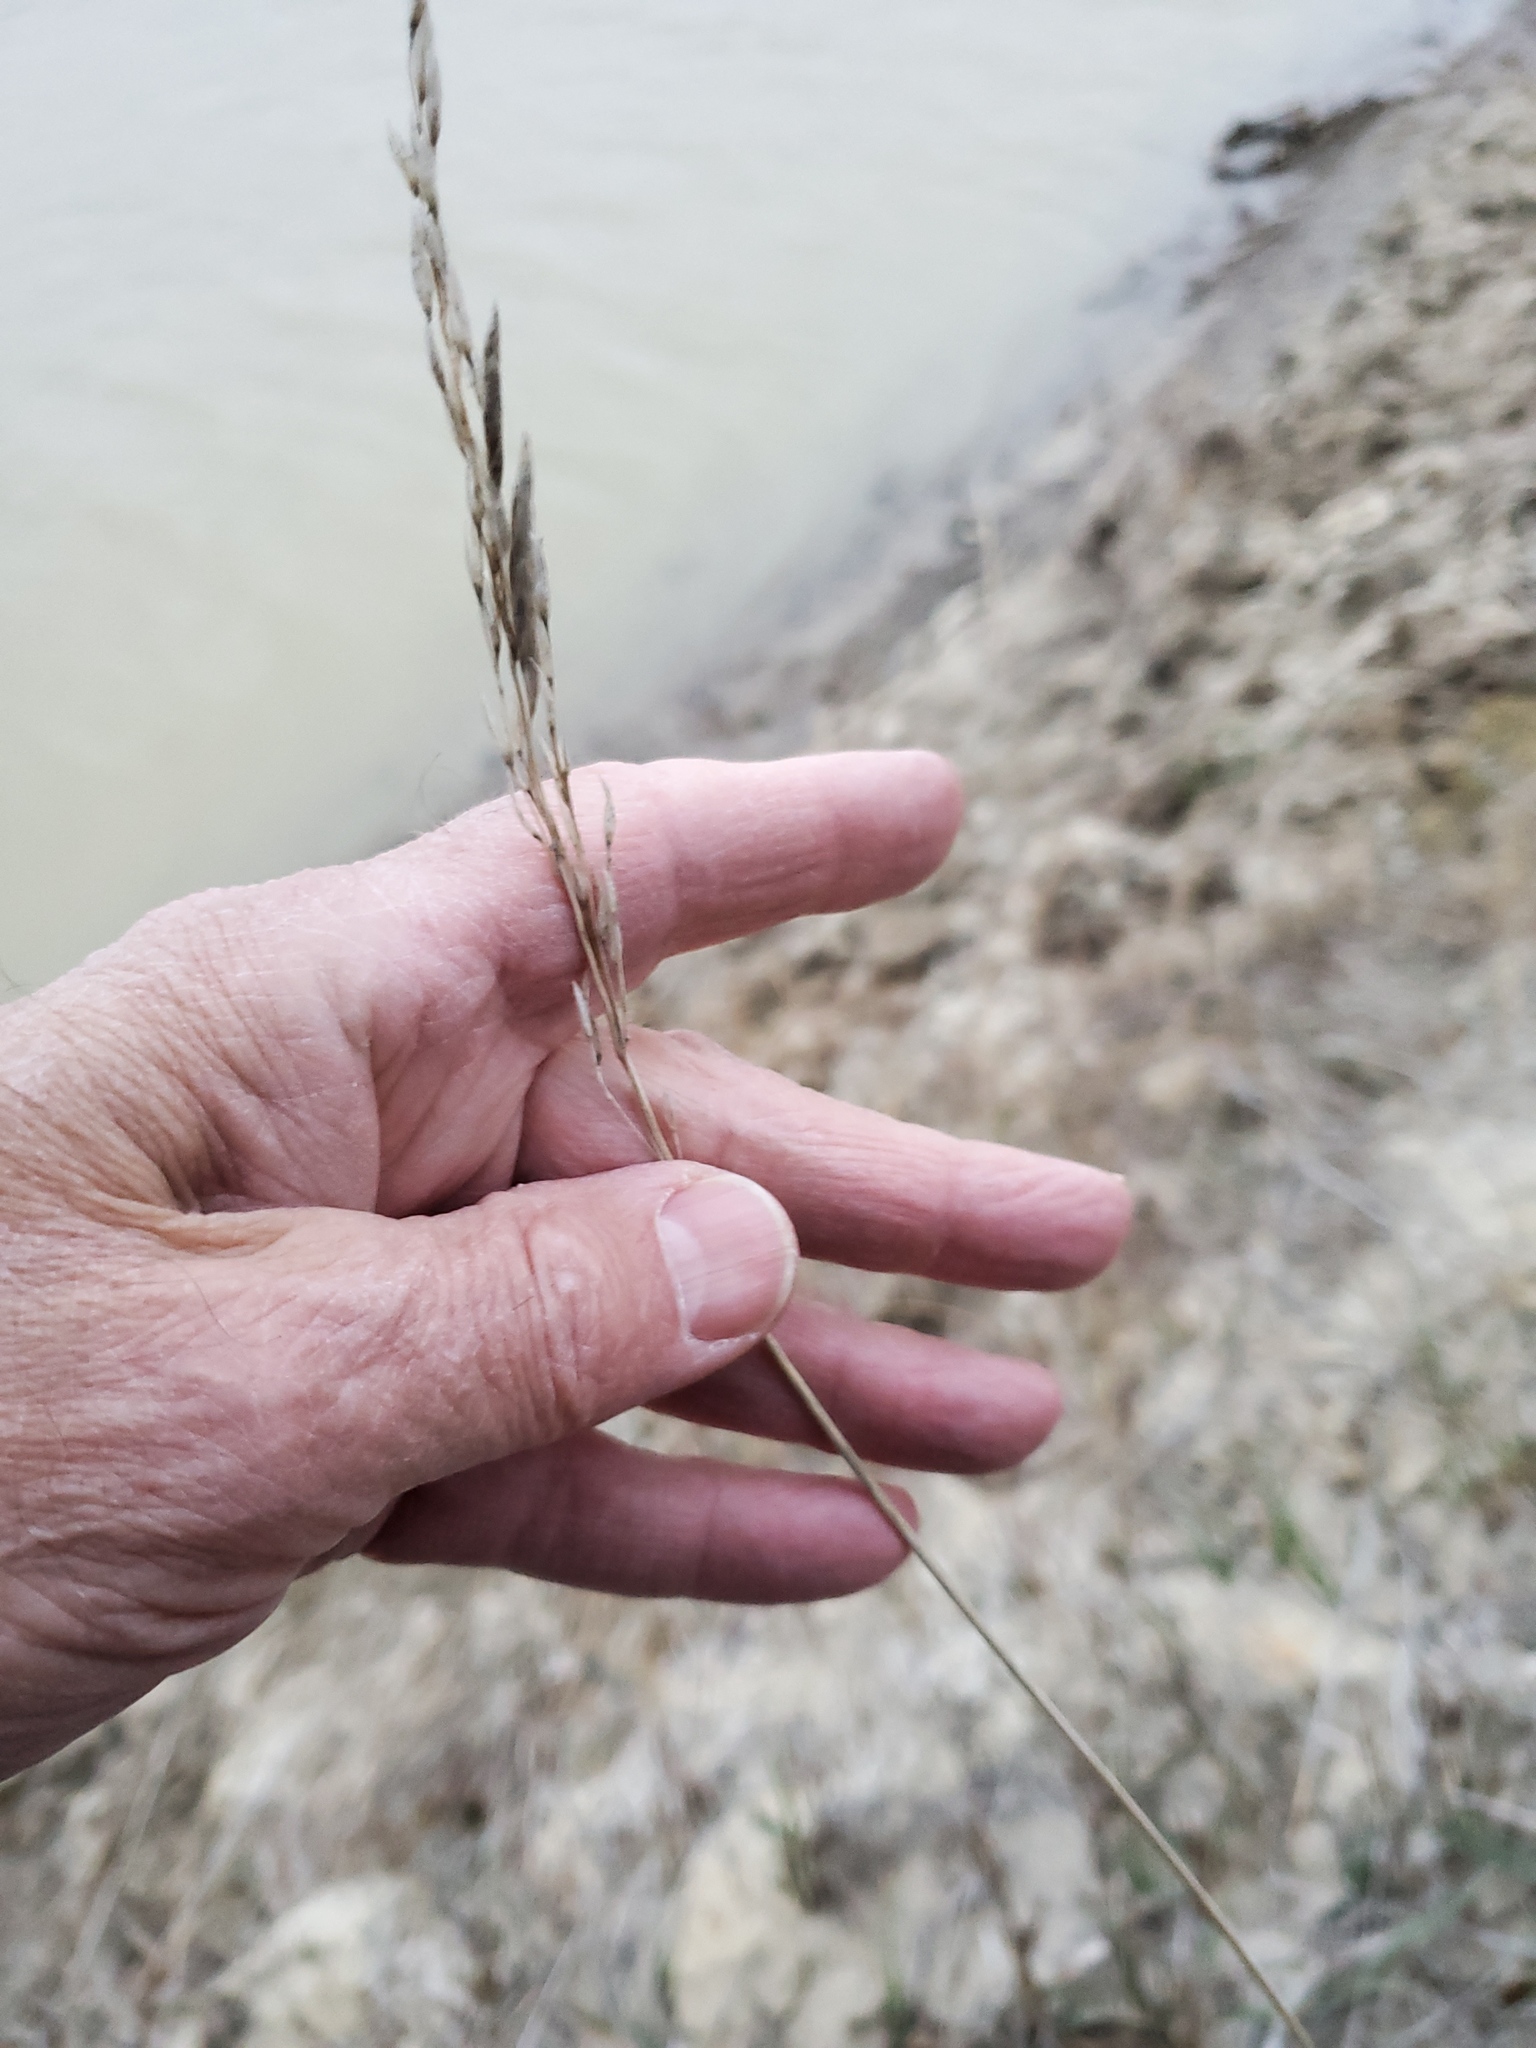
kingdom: Plantae
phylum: Tracheophyta
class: Liliopsida
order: Poales
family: Poaceae
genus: Bromus
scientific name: Bromus inermis
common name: Smooth brome
